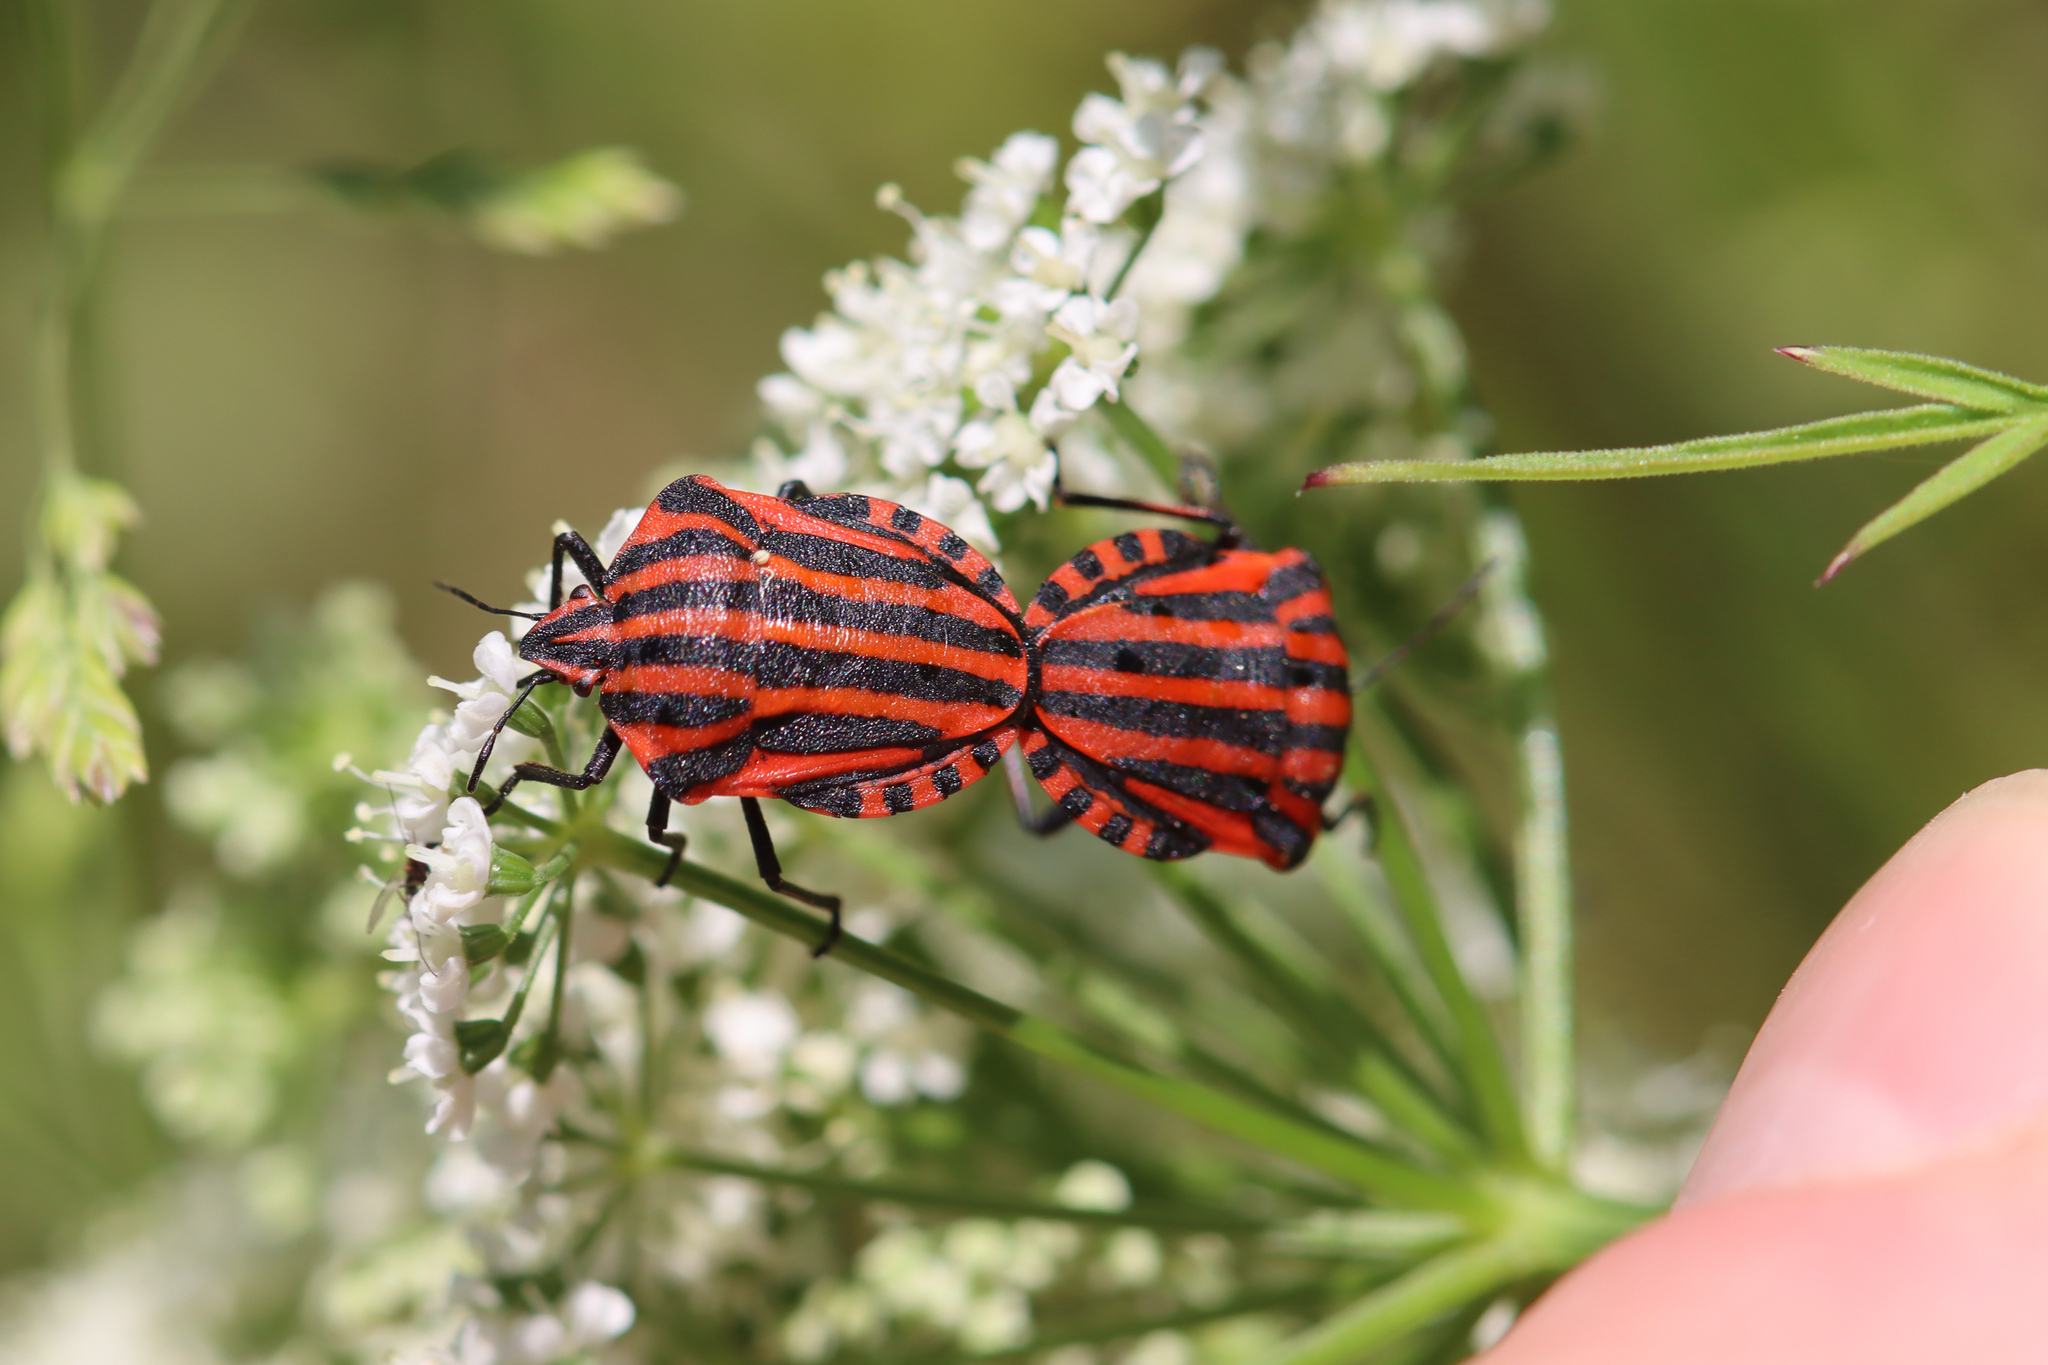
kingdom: Animalia
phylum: Arthropoda
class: Insecta
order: Hemiptera
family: Pentatomidae
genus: Graphosoma
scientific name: Graphosoma italicum
